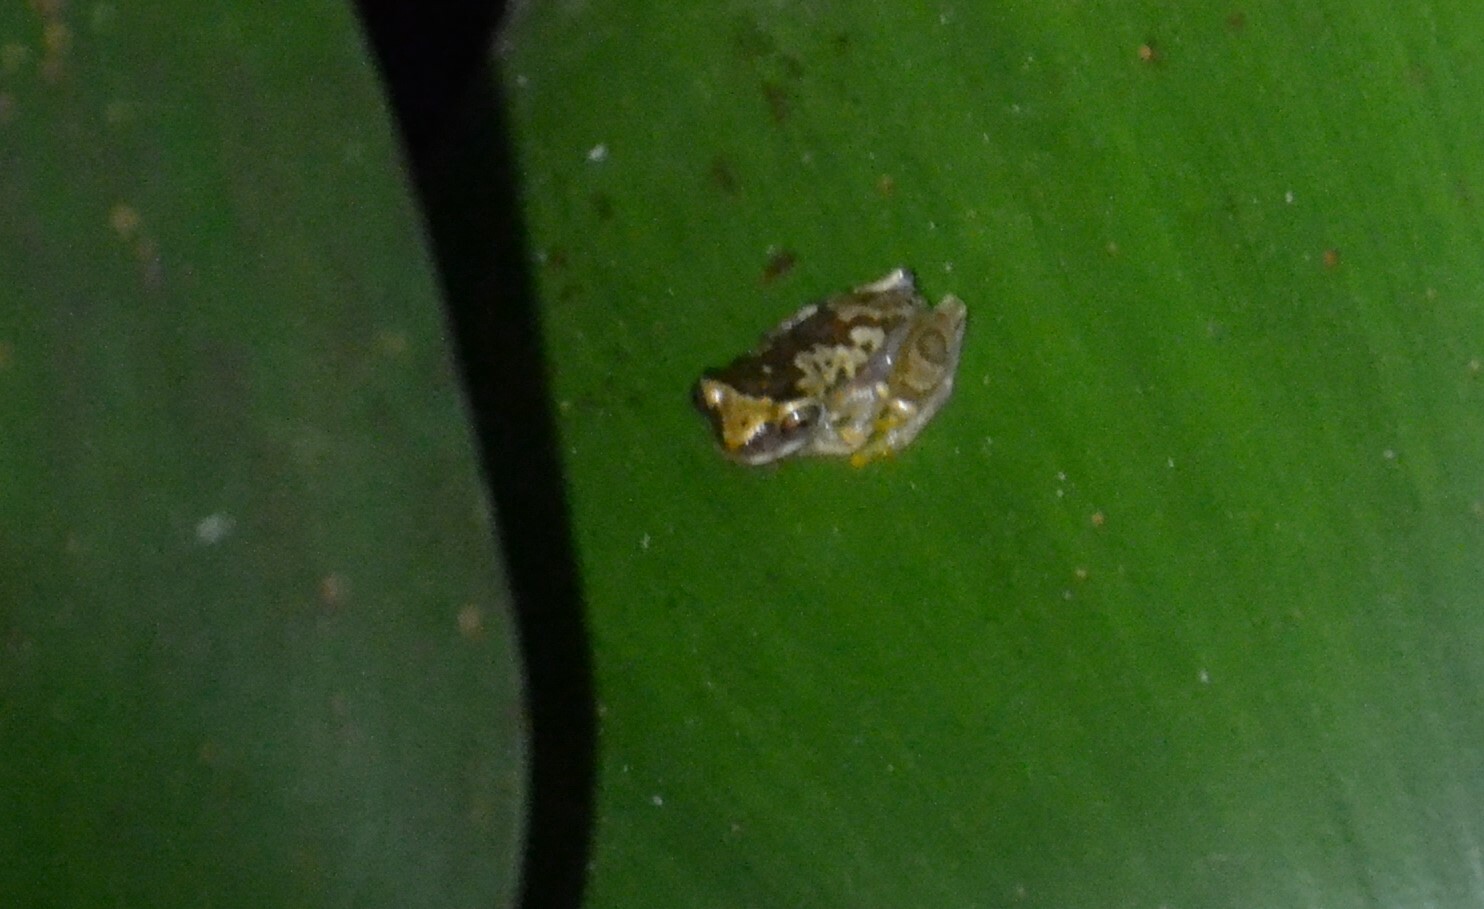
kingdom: Animalia
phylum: Chordata
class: Amphibia
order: Anura
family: Hylidae
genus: Dendropsophus
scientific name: Dendropsophus ebraccatus
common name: Hourglass treefrog
